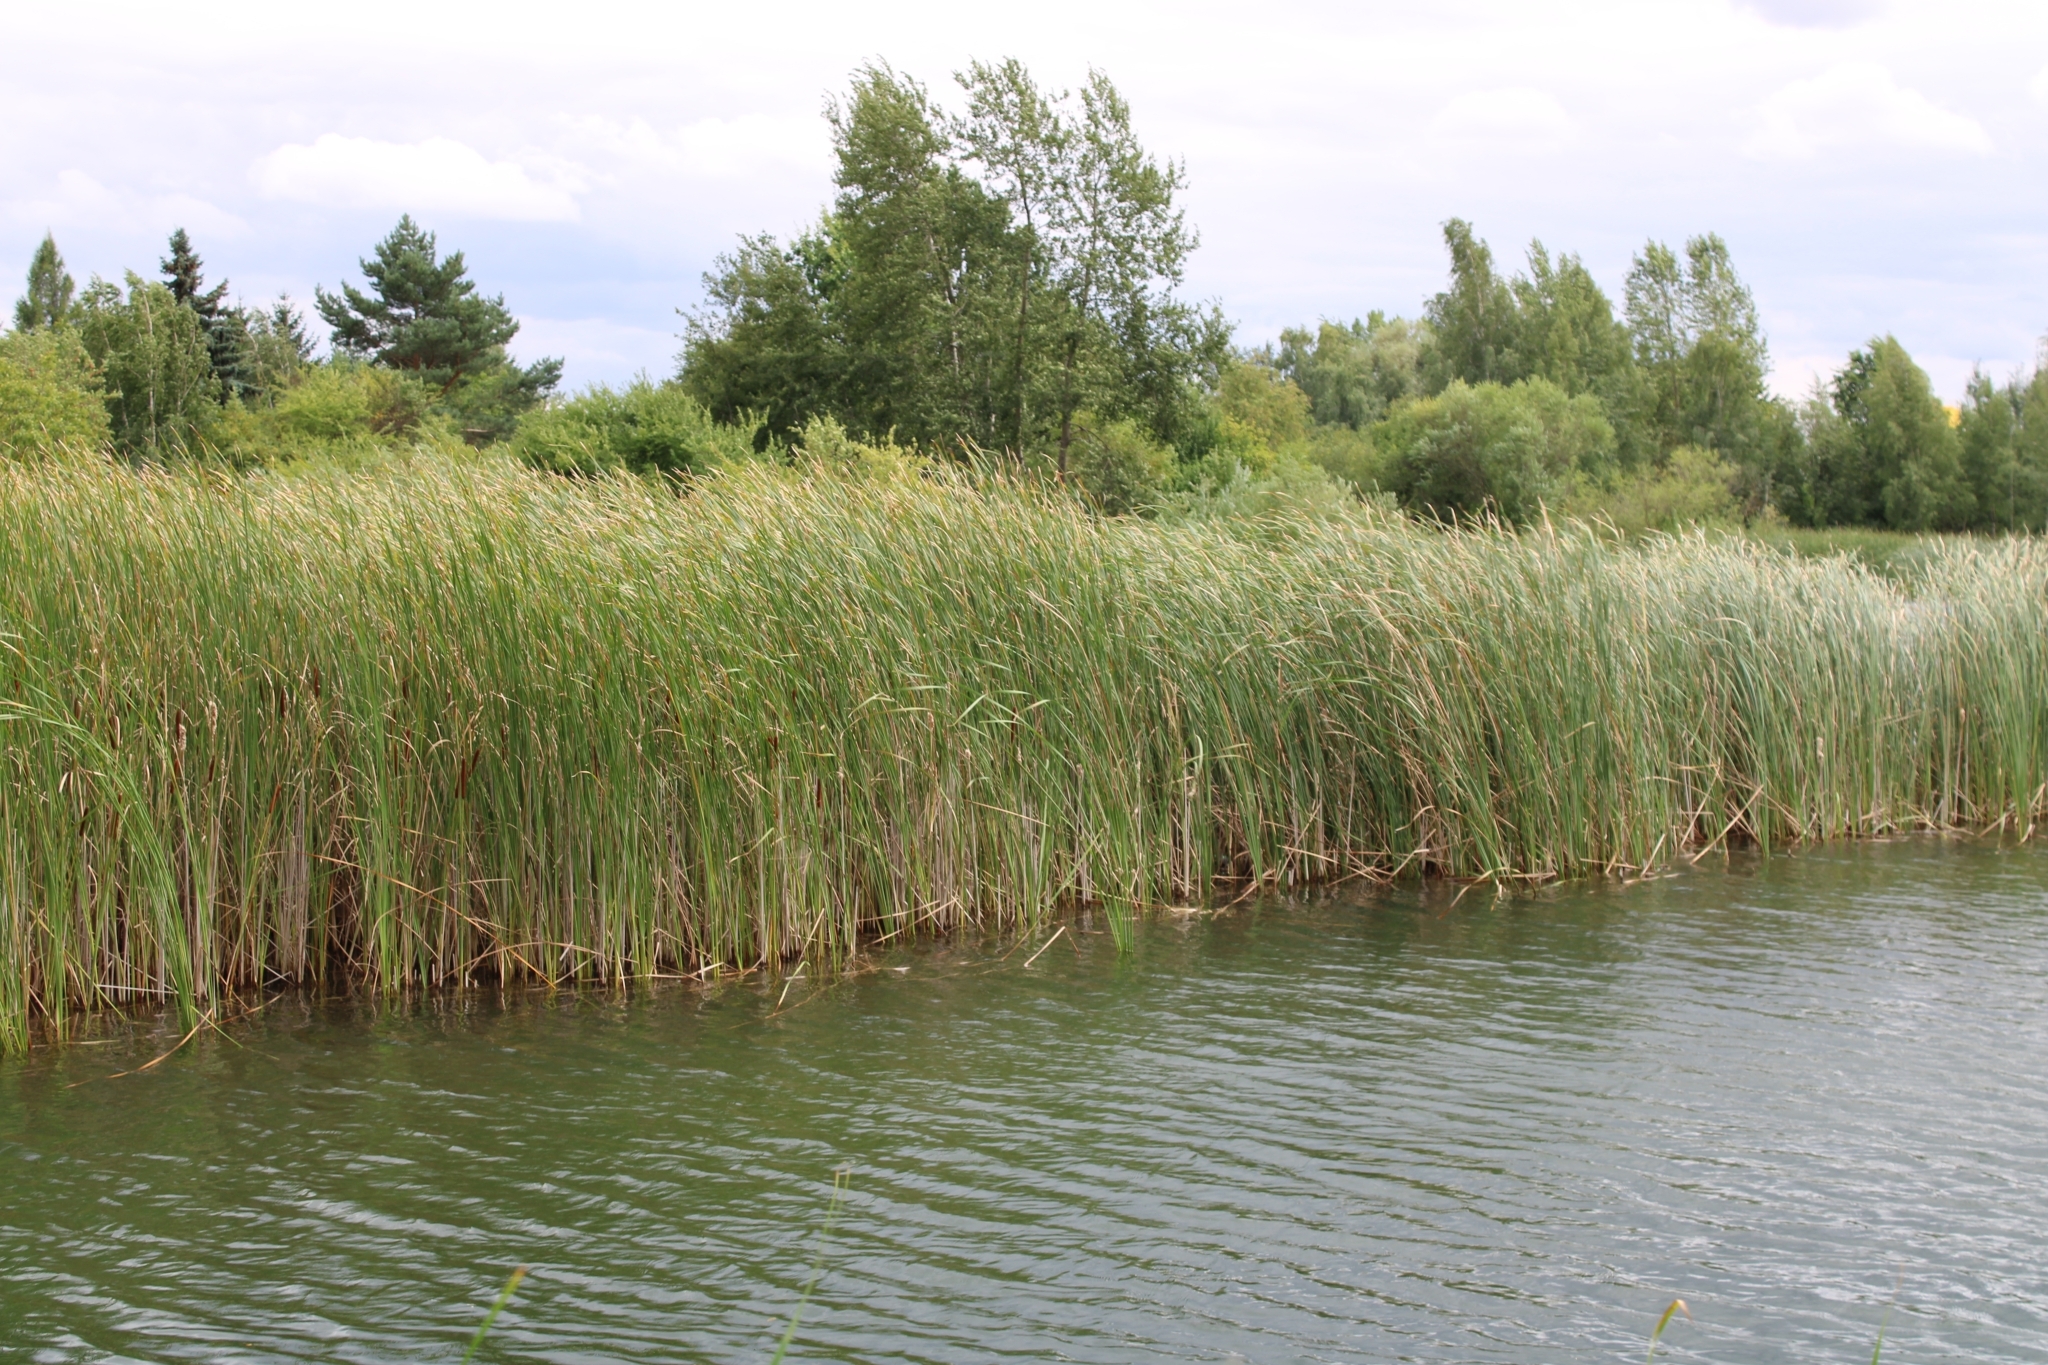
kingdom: Plantae
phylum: Tracheophyta
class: Liliopsida
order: Poales
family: Typhaceae
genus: Typha
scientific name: Typha angustifolia
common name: Lesser bulrush
